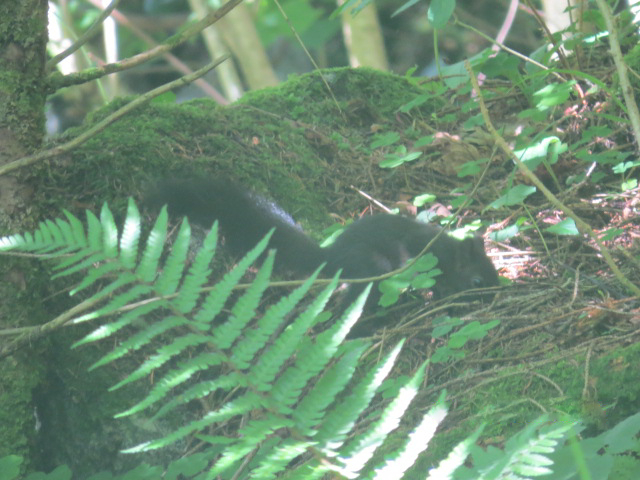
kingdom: Animalia
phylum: Chordata
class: Mammalia
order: Rodentia
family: Sciuridae
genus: Sciurus
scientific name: Sciurus vulgaris
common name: Eurasian red squirrel
